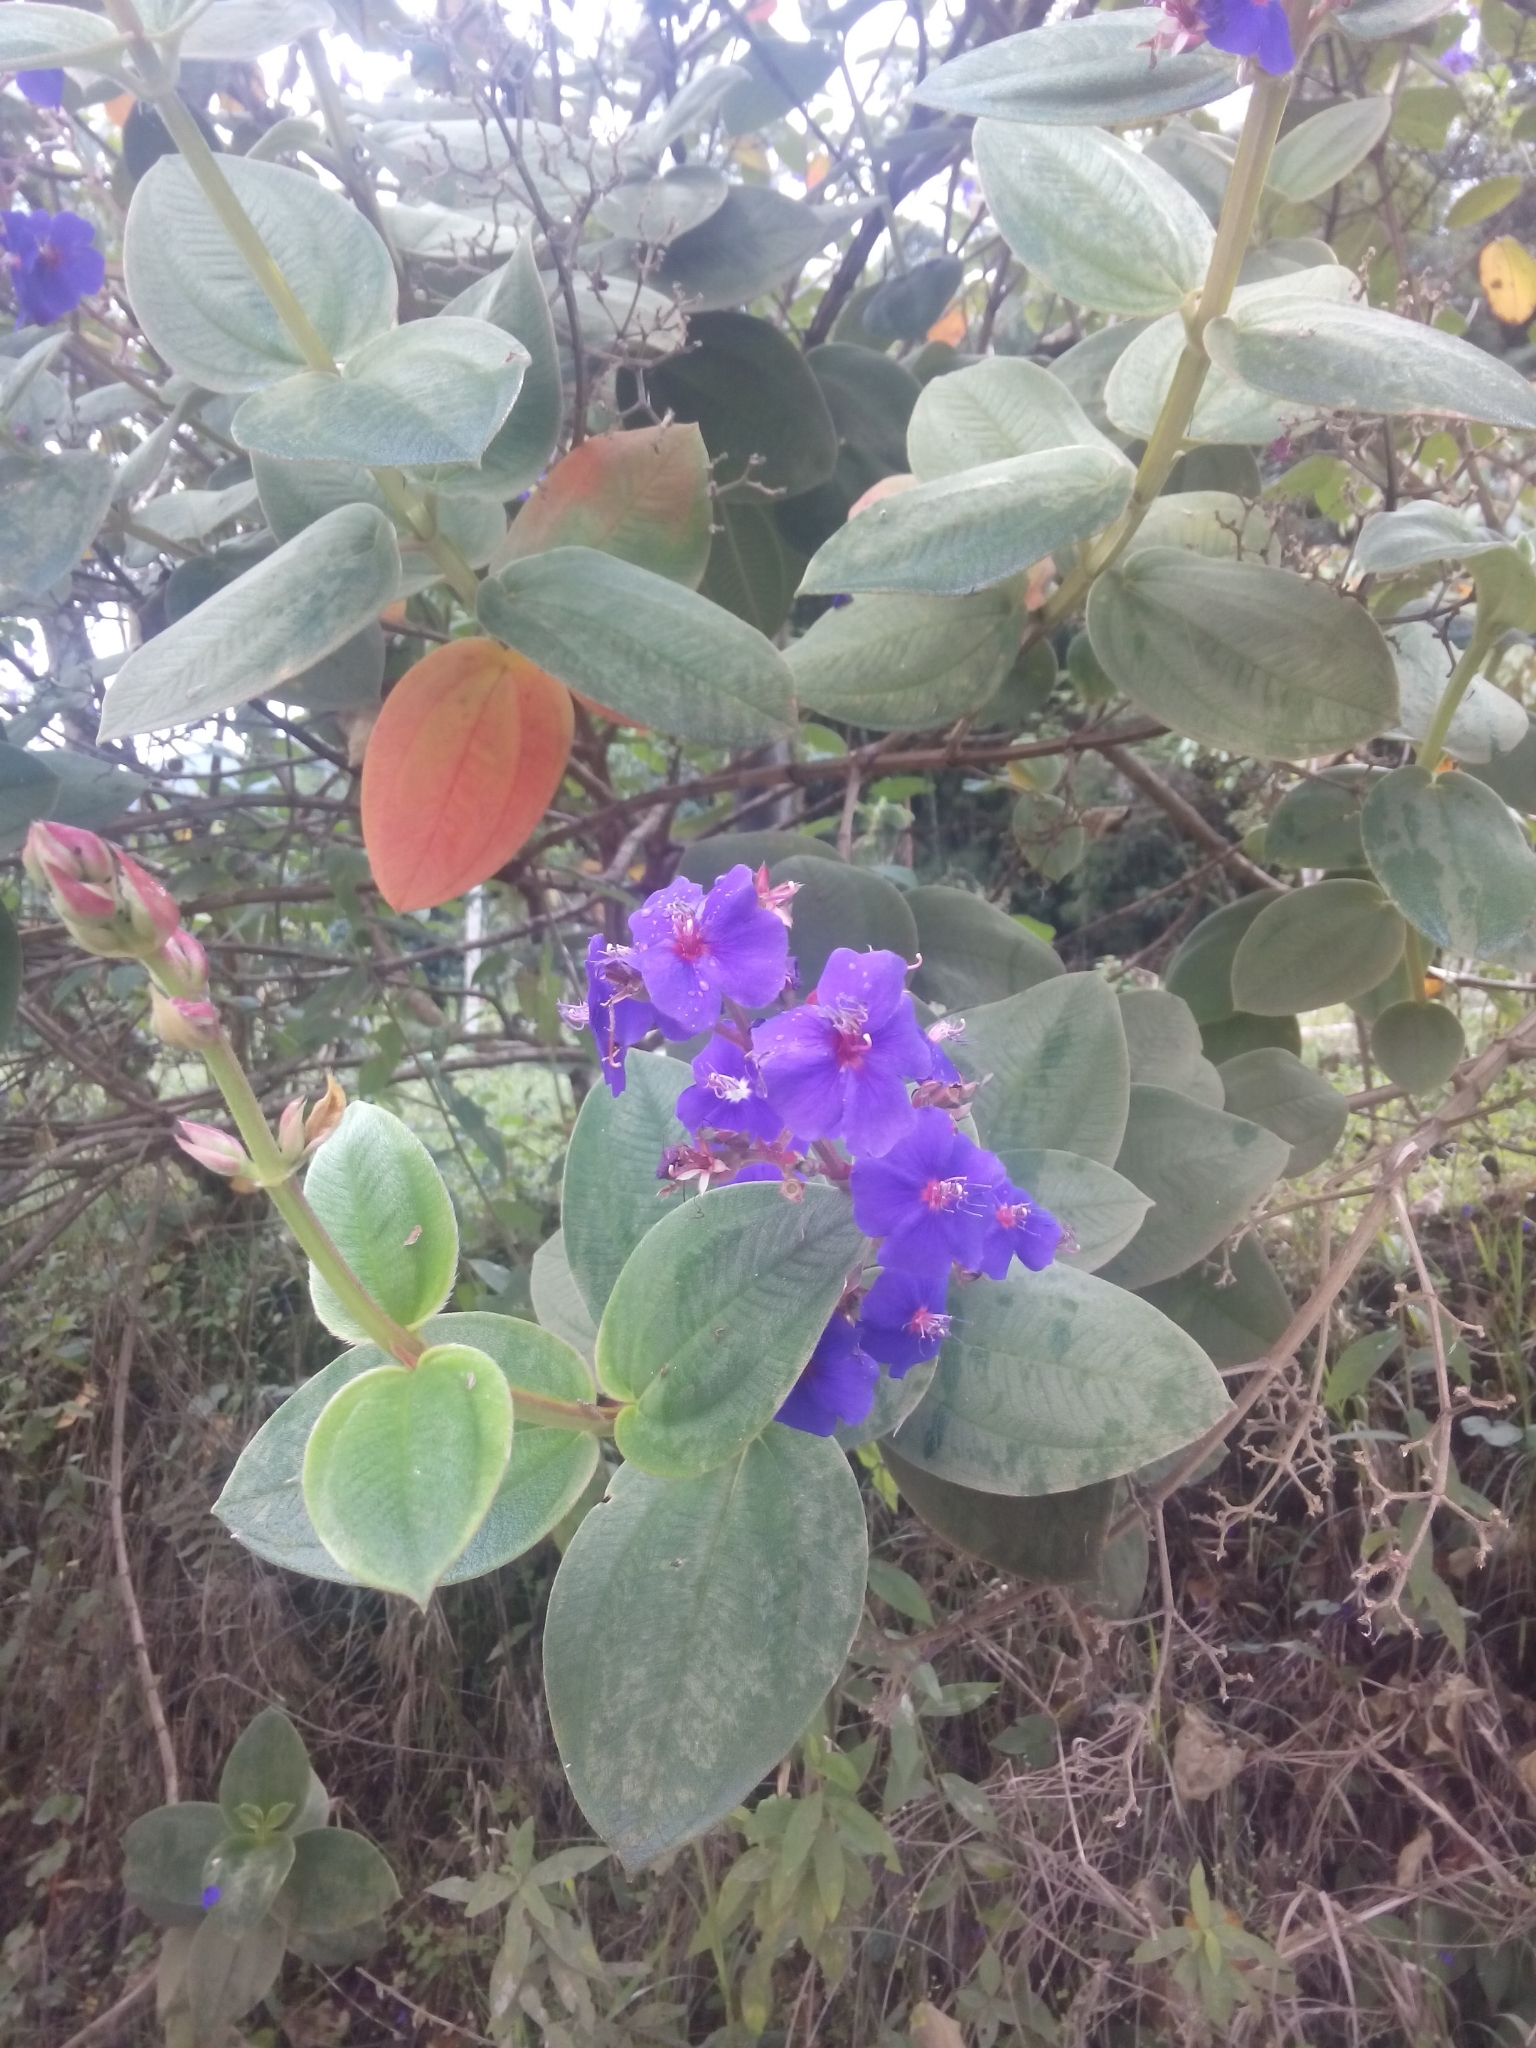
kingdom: Plantae
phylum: Tracheophyta
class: Magnoliopsida
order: Myrtales
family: Melastomataceae
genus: Pleroma
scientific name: Pleroma heteromallum
